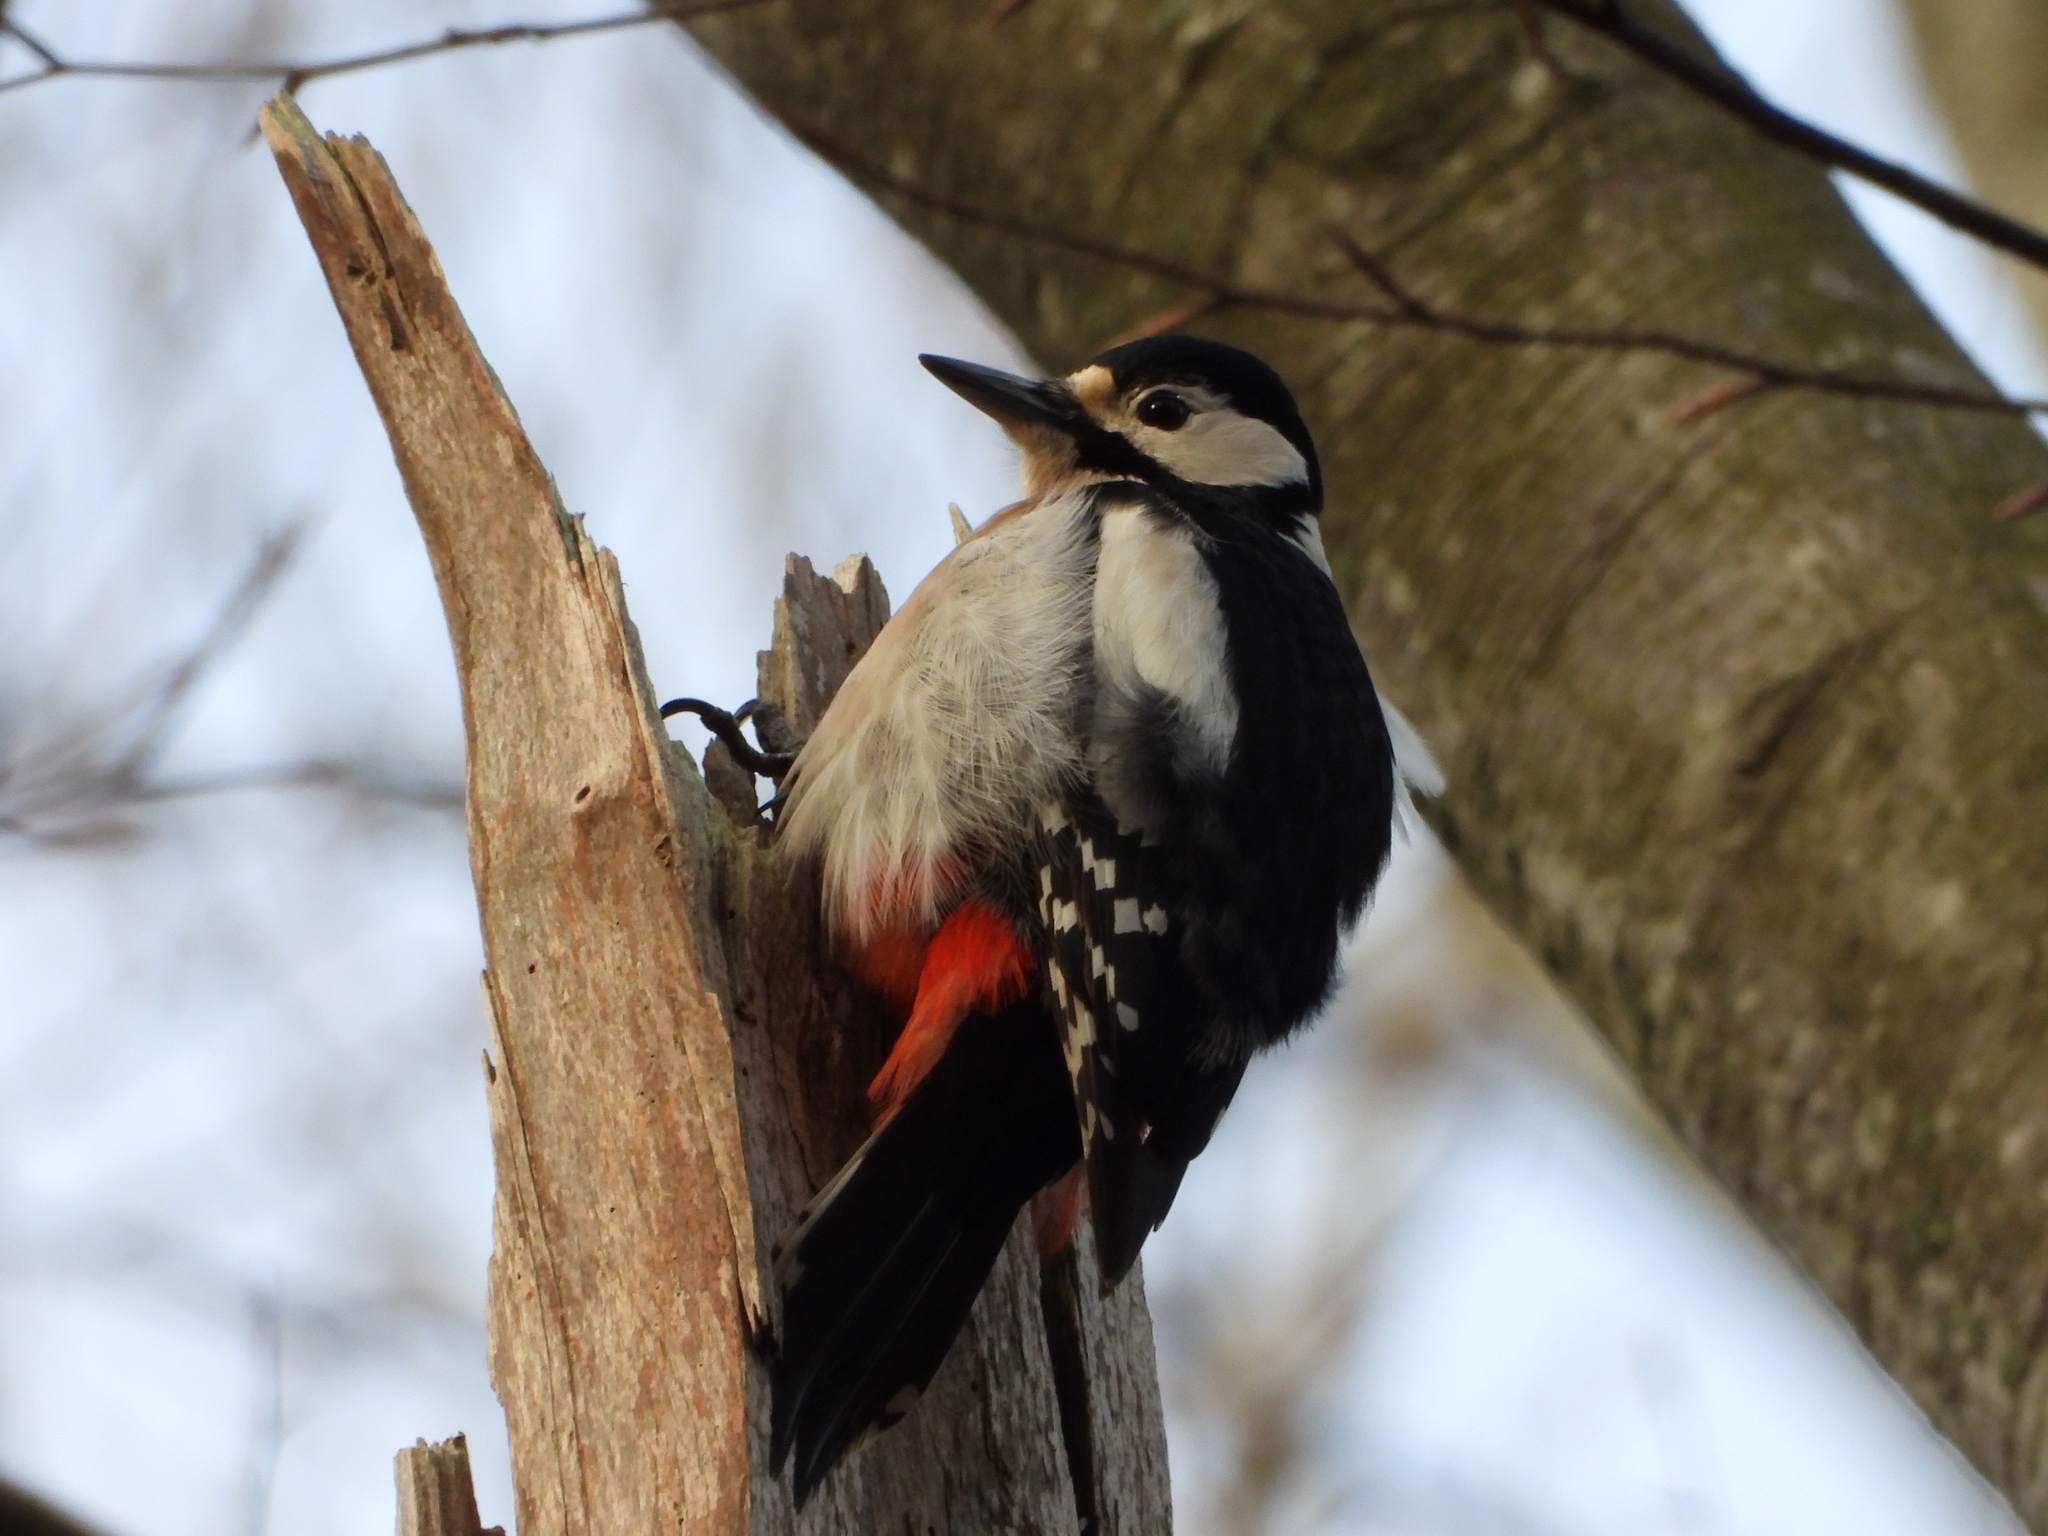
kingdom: Animalia
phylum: Chordata
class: Aves
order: Piciformes
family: Picidae
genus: Dendrocopos
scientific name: Dendrocopos major
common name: Great spotted woodpecker
